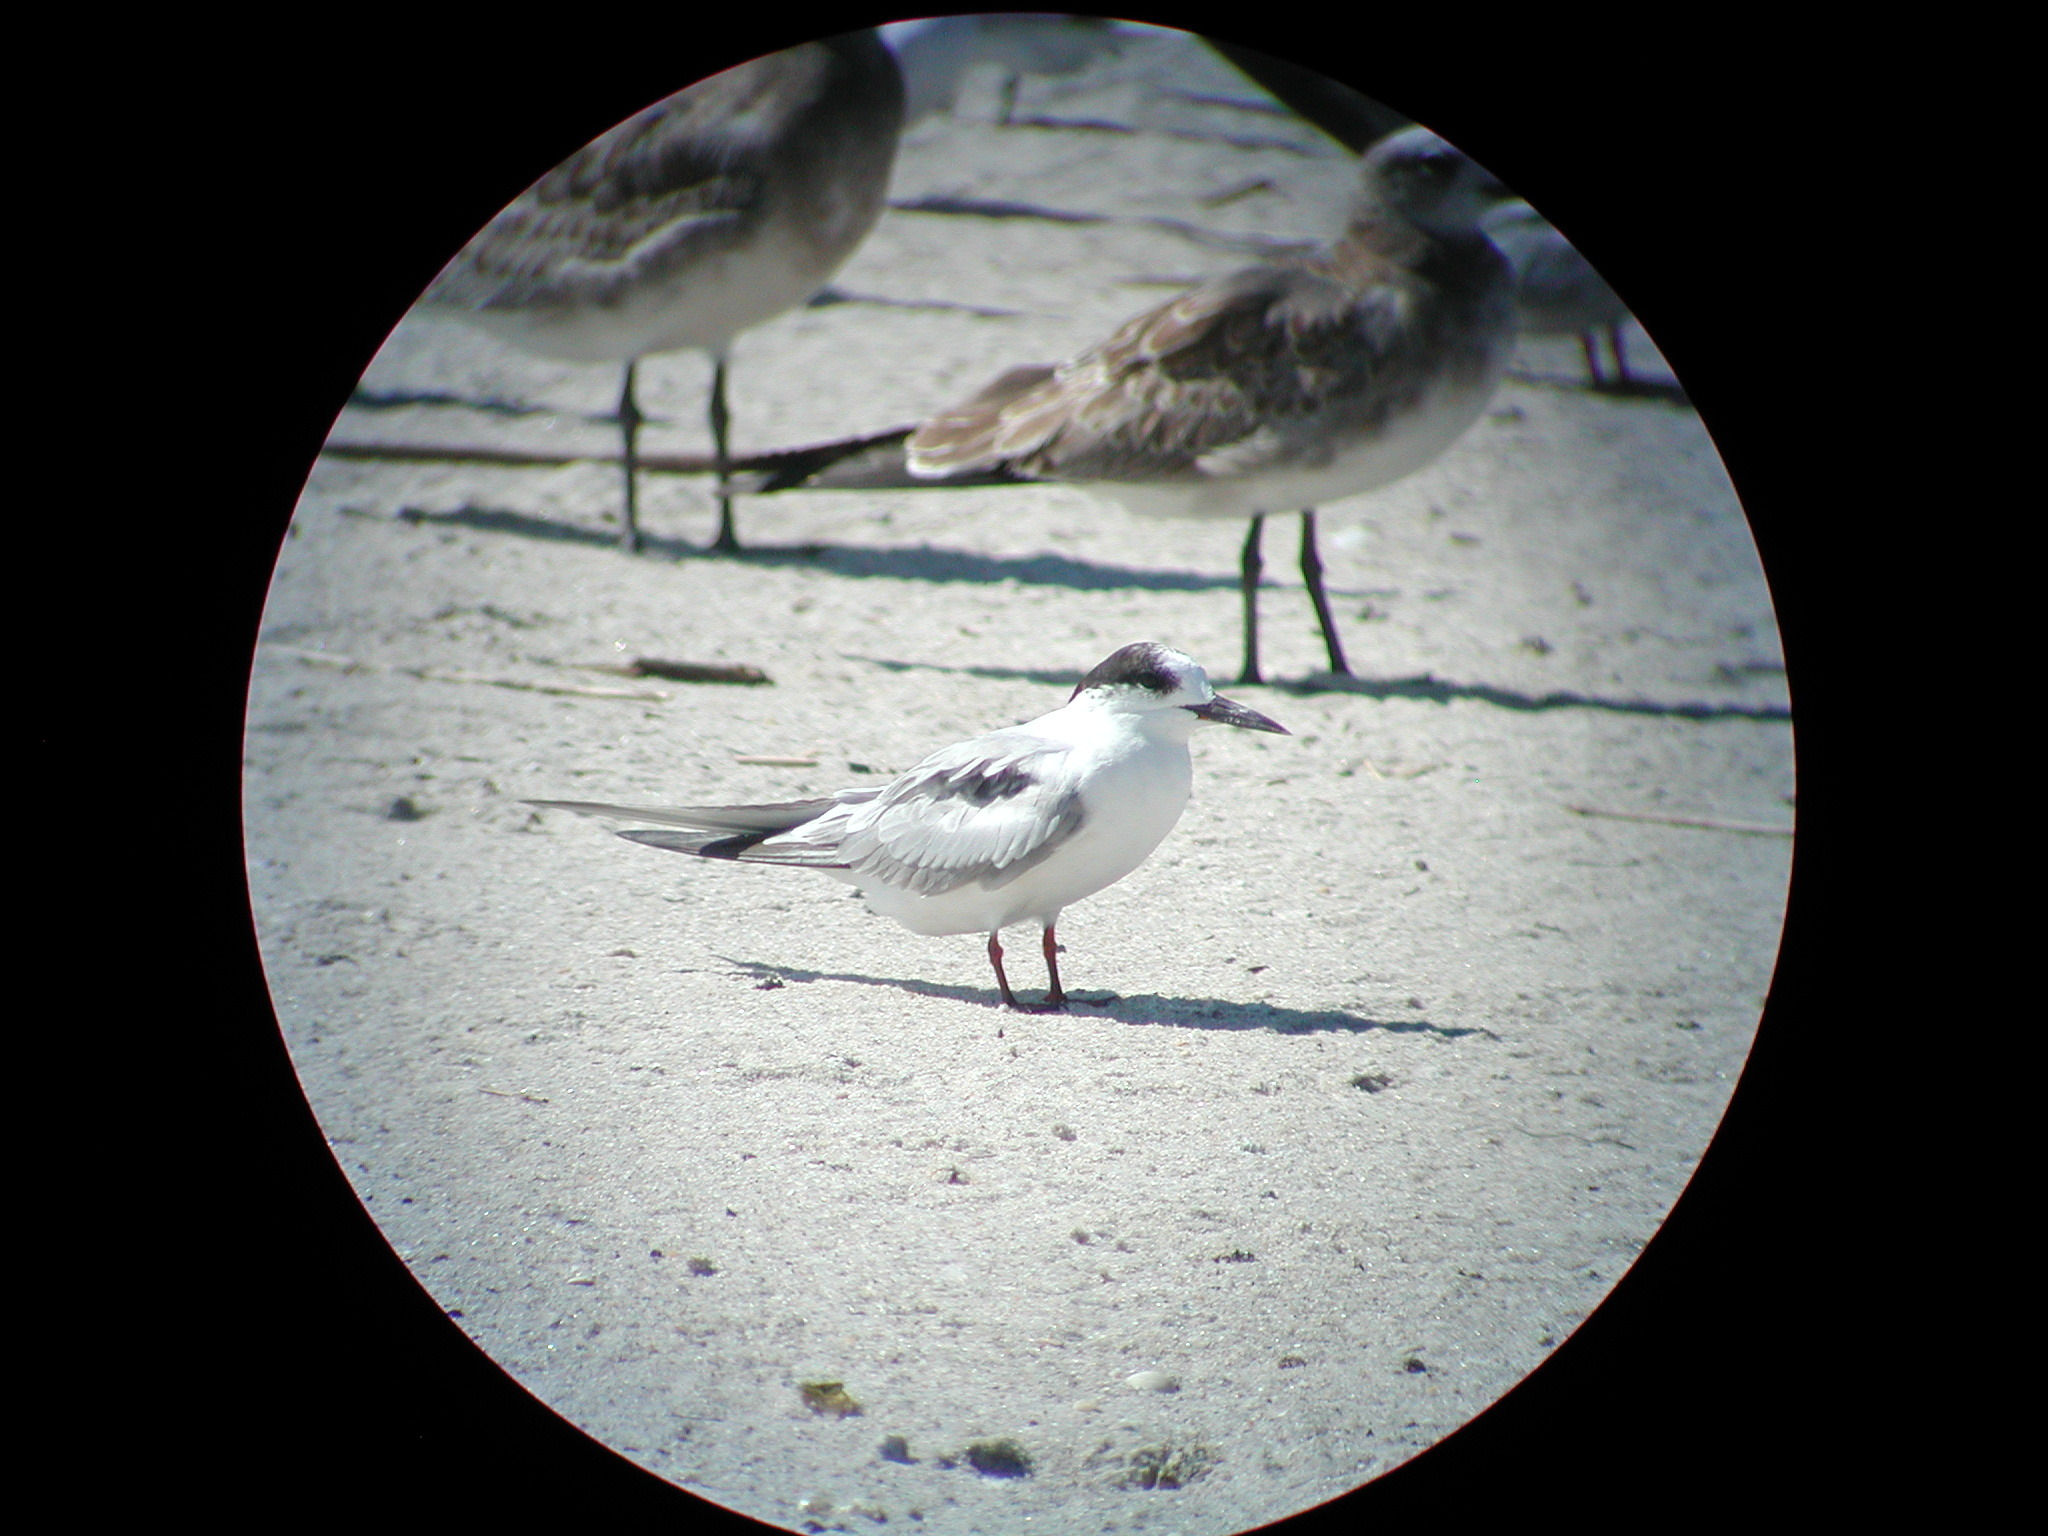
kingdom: Animalia
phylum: Chordata
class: Aves
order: Charadriiformes
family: Laridae
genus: Sterna
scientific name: Sterna hirundo
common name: Common tern
